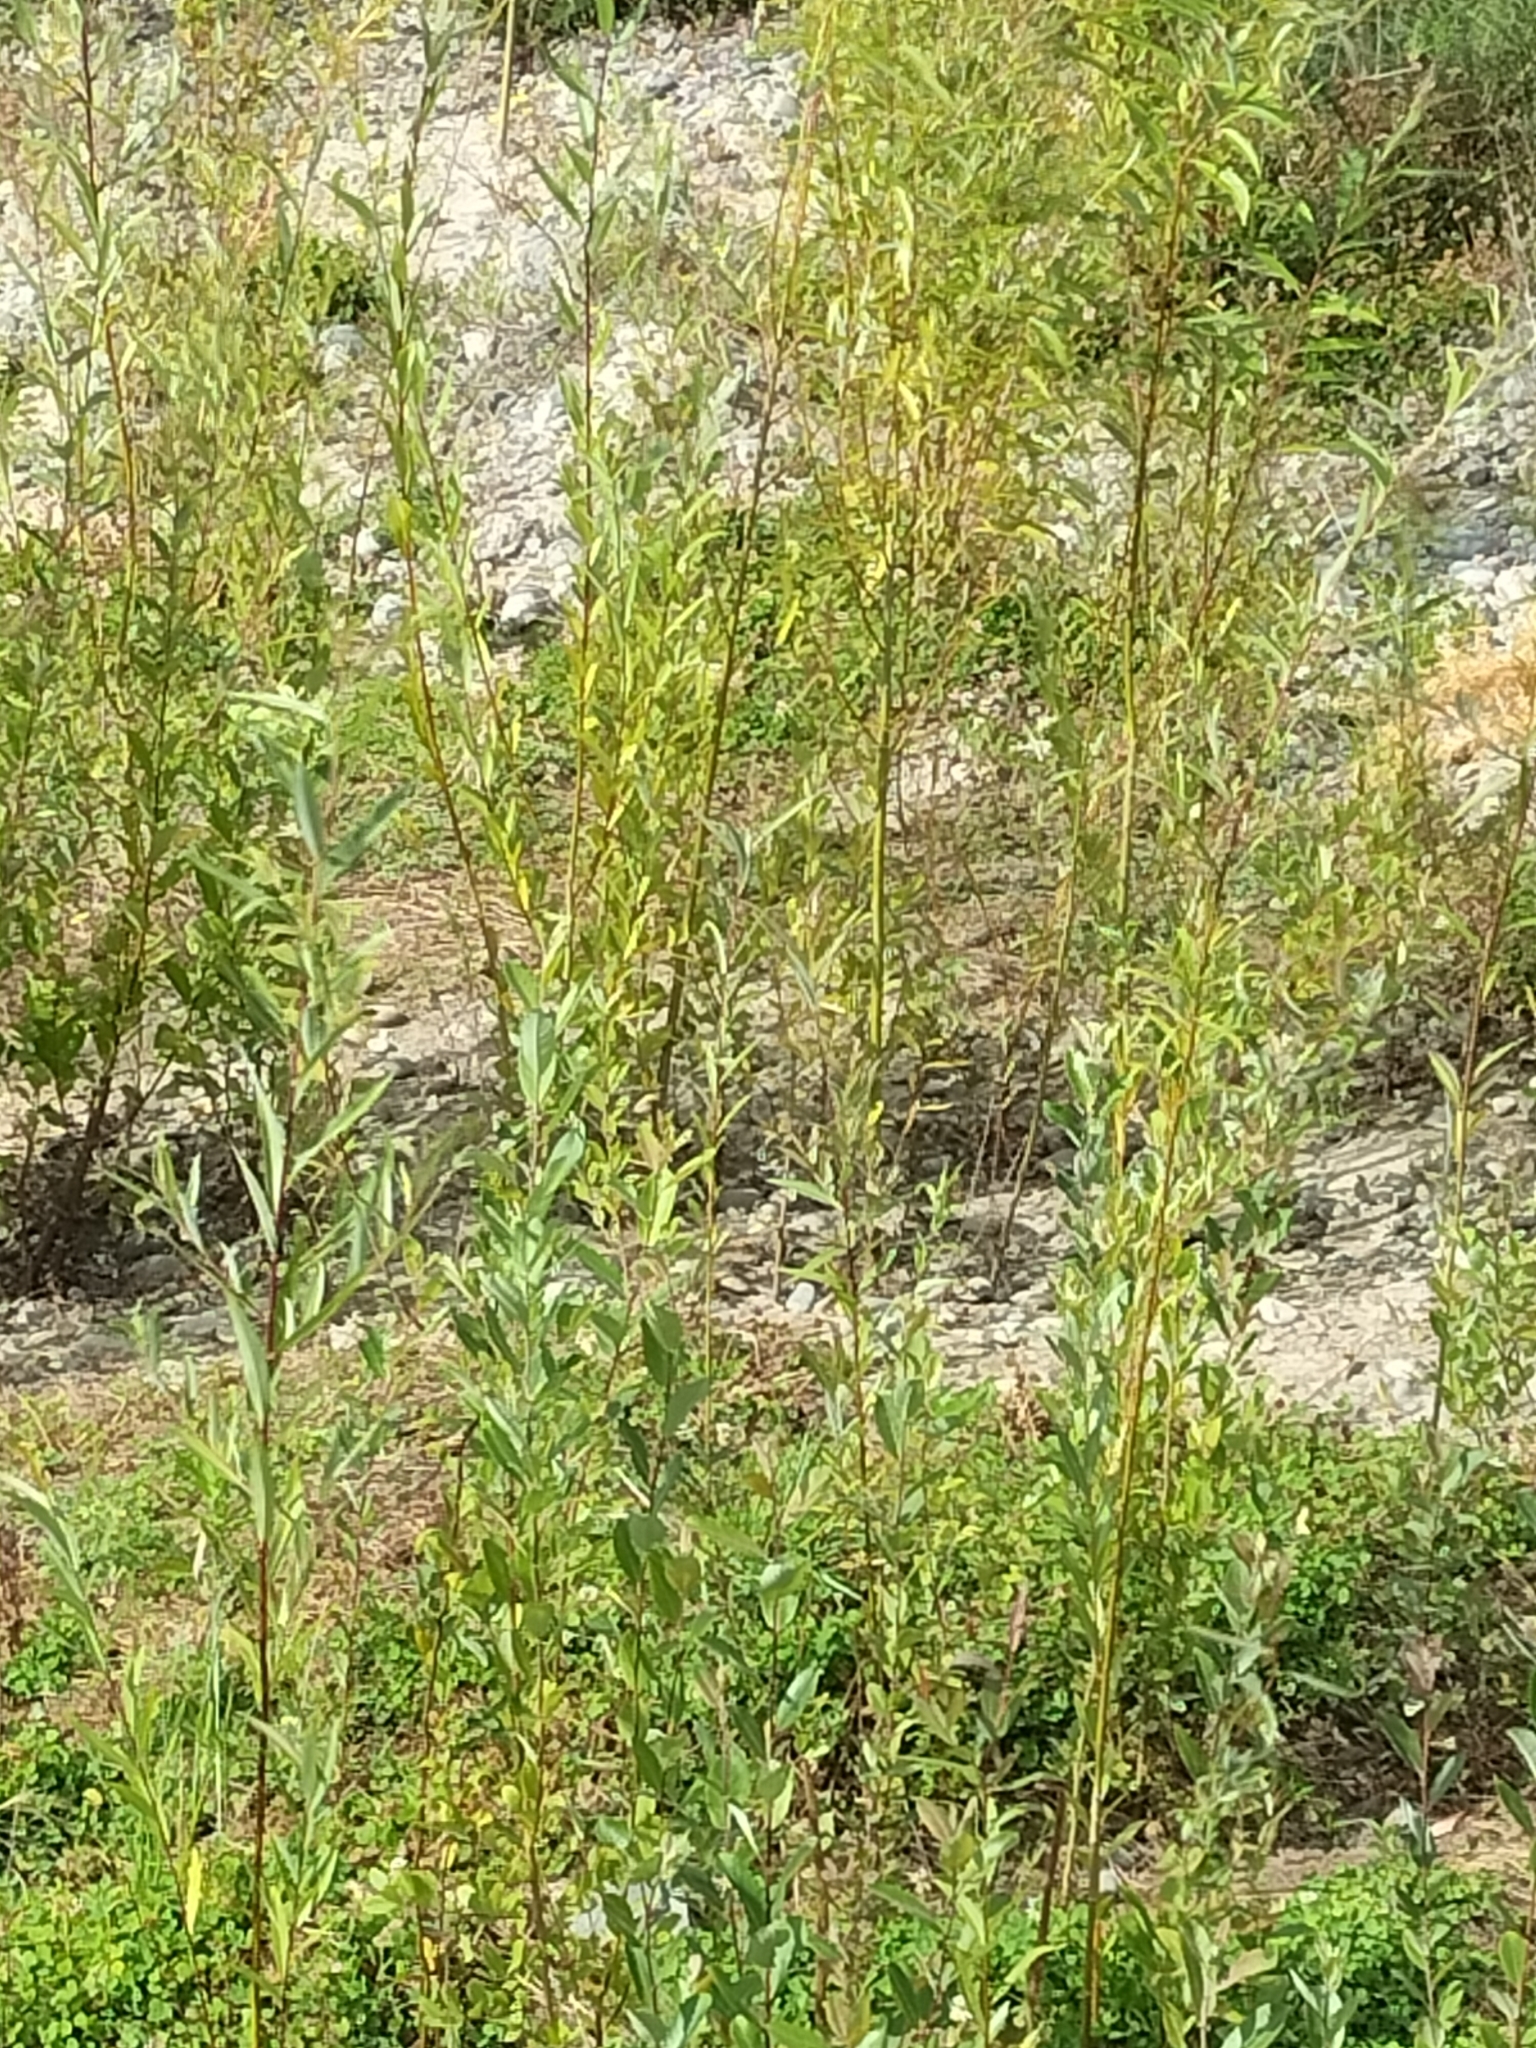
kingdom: Plantae
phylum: Tracheophyta
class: Magnoliopsida
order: Malpighiales
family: Salicaceae
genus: Salix
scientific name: Salix fragilis
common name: Crack willow
